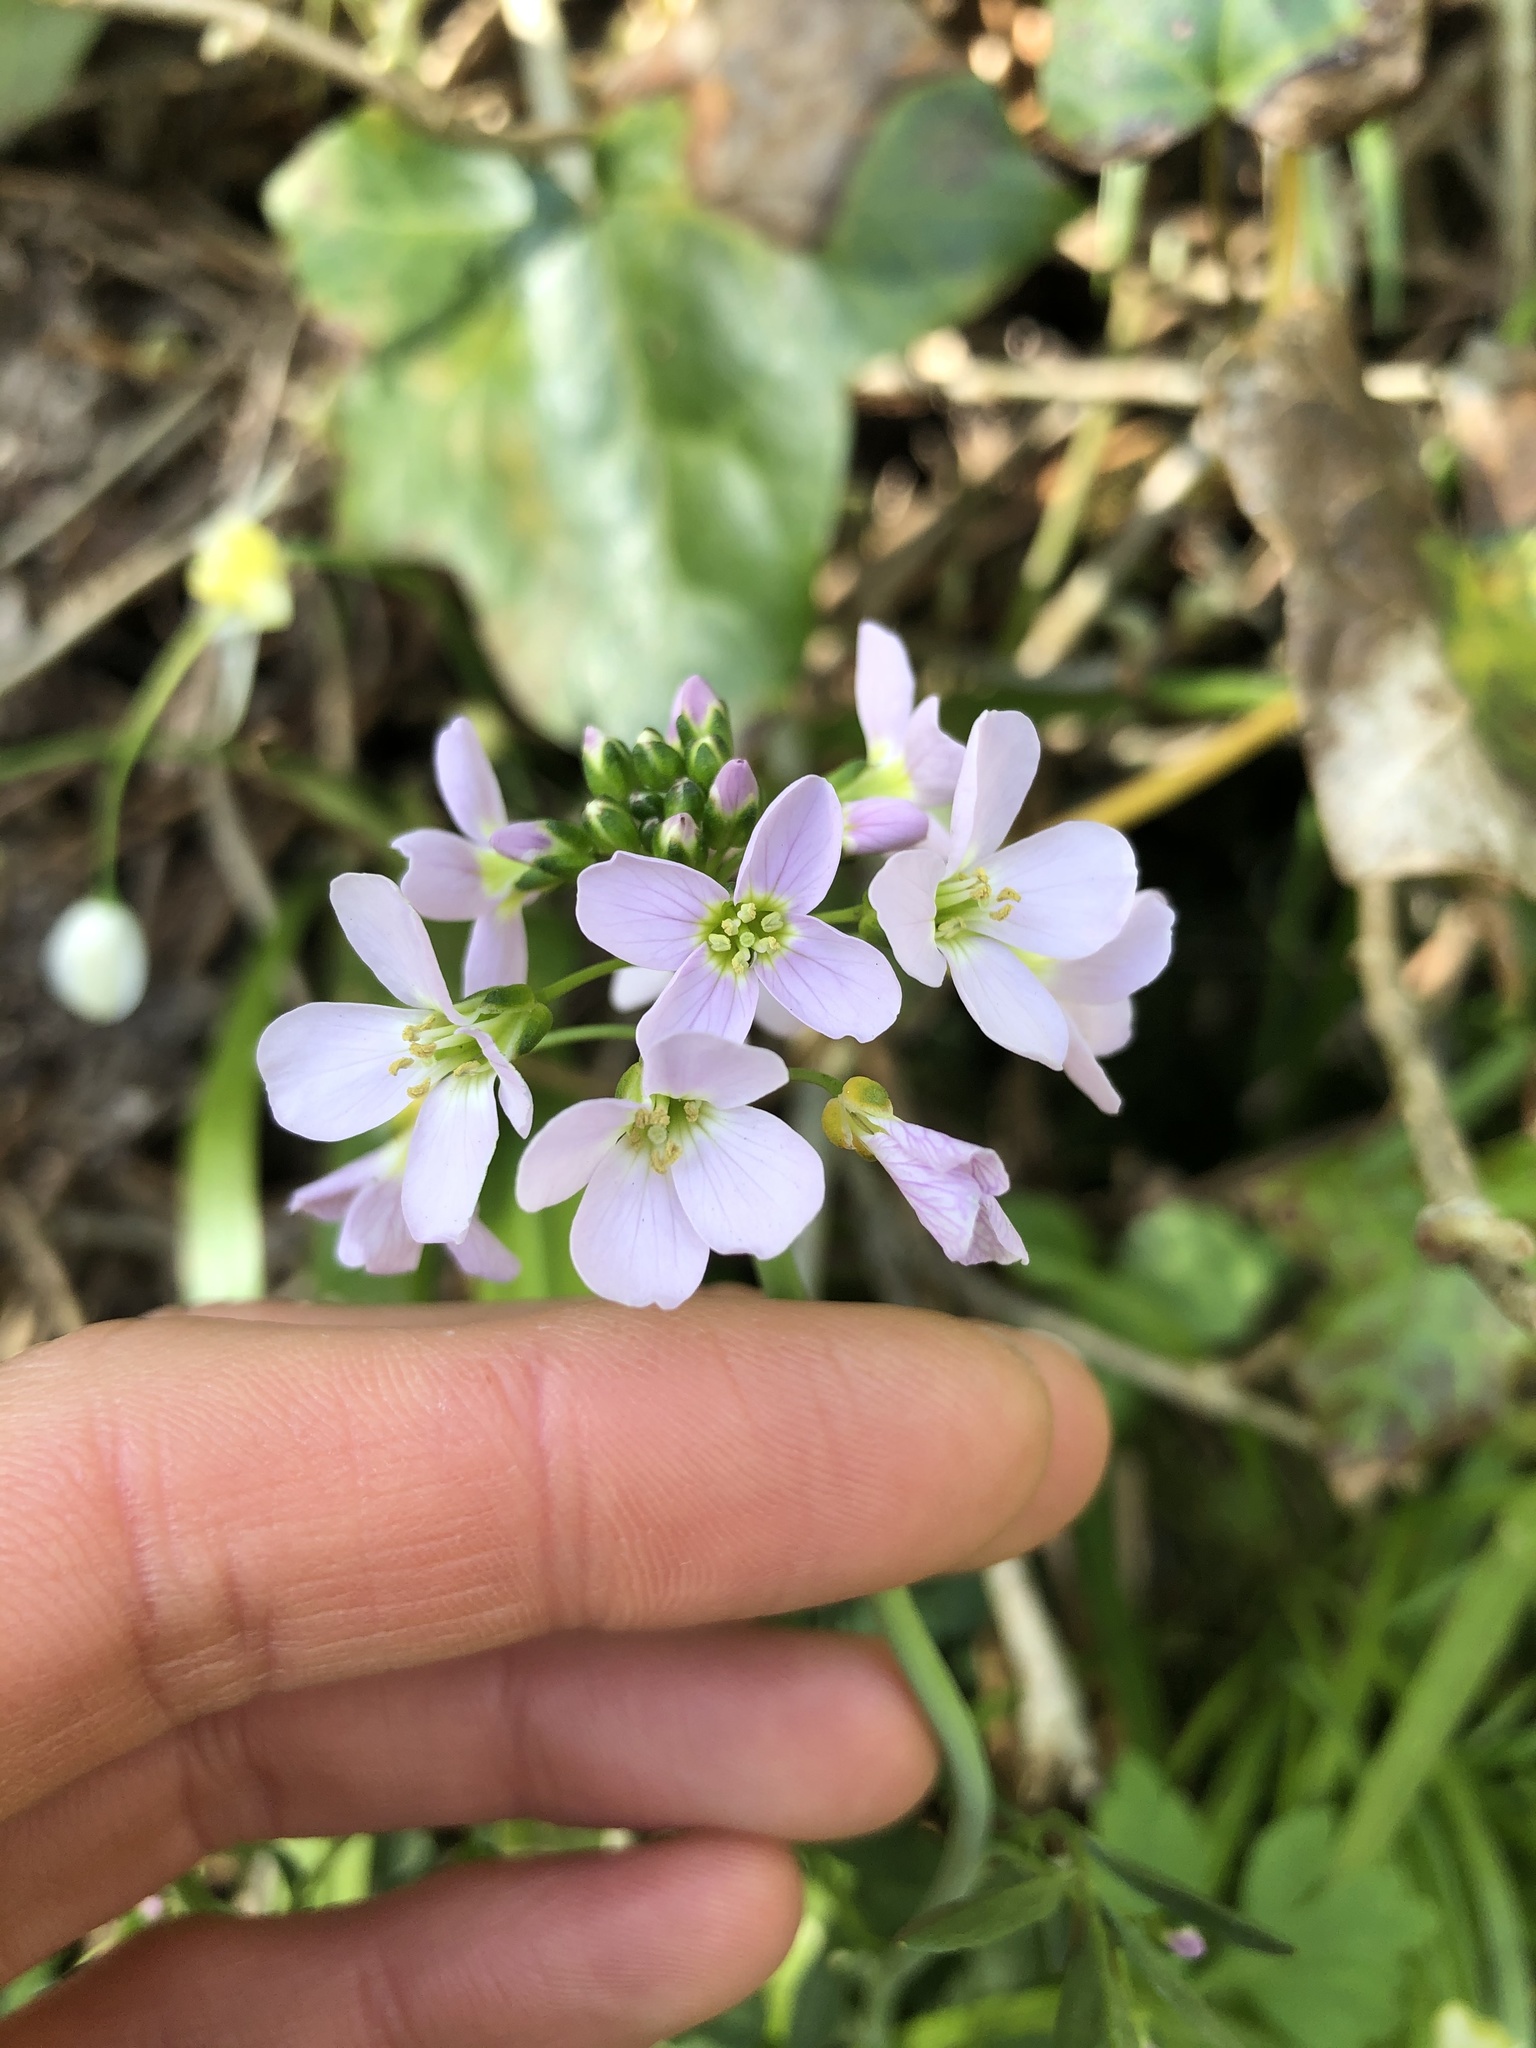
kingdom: Plantae
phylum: Tracheophyta
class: Magnoliopsida
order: Brassicales
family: Brassicaceae
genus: Cardamine
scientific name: Cardamine pratensis
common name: Cuckoo flower
